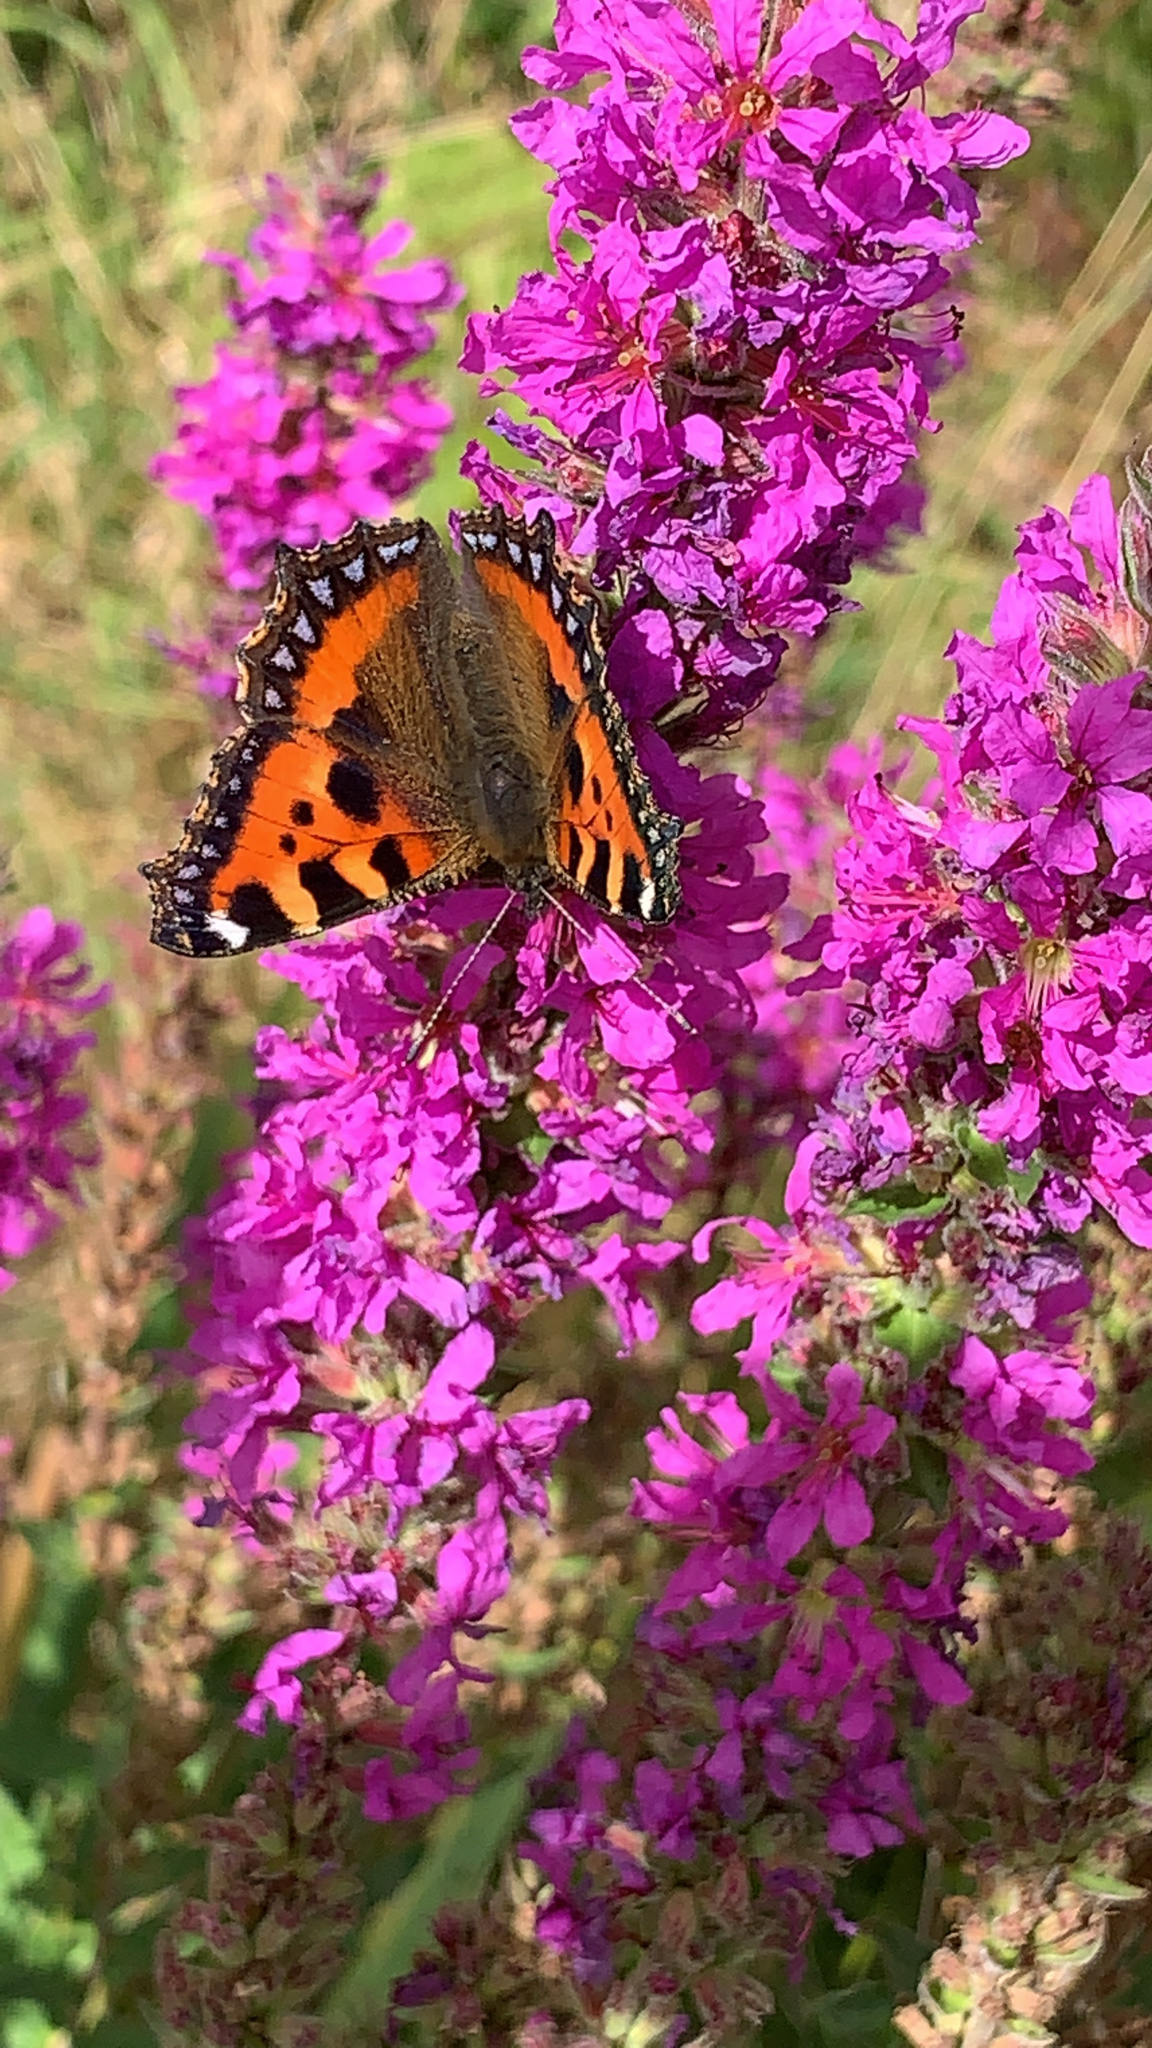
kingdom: Animalia
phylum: Arthropoda
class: Insecta
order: Lepidoptera
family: Nymphalidae
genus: Aglais
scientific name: Aglais urticae
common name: Small tortoiseshell
